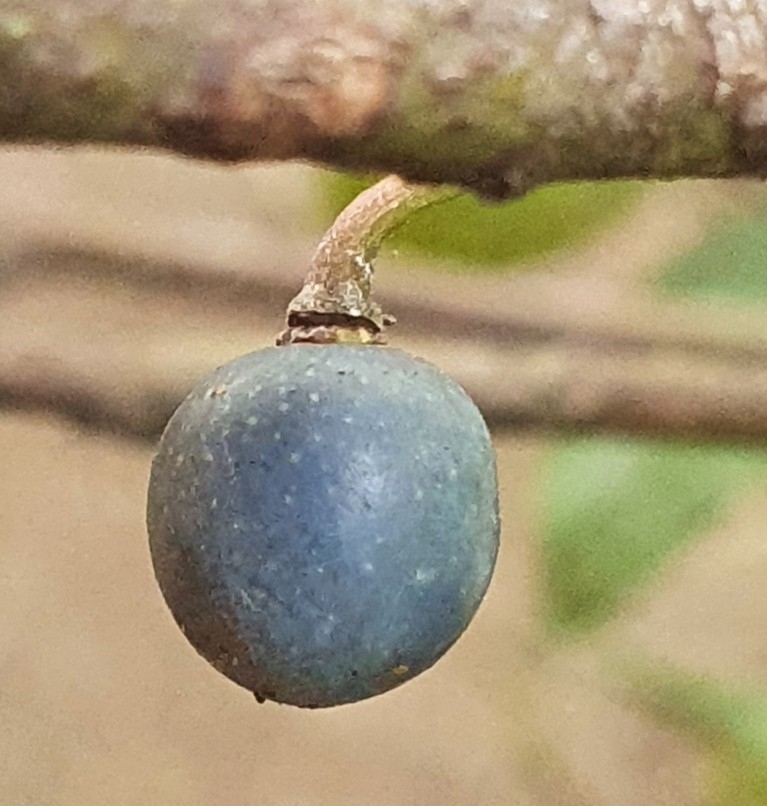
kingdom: Plantae
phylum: Tracheophyta
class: Magnoliopsida
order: Oxalidales
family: Elaeocarpaceae
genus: Elaeocarpus
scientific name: Elaeocarpus reticulatus
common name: Ash quandong
